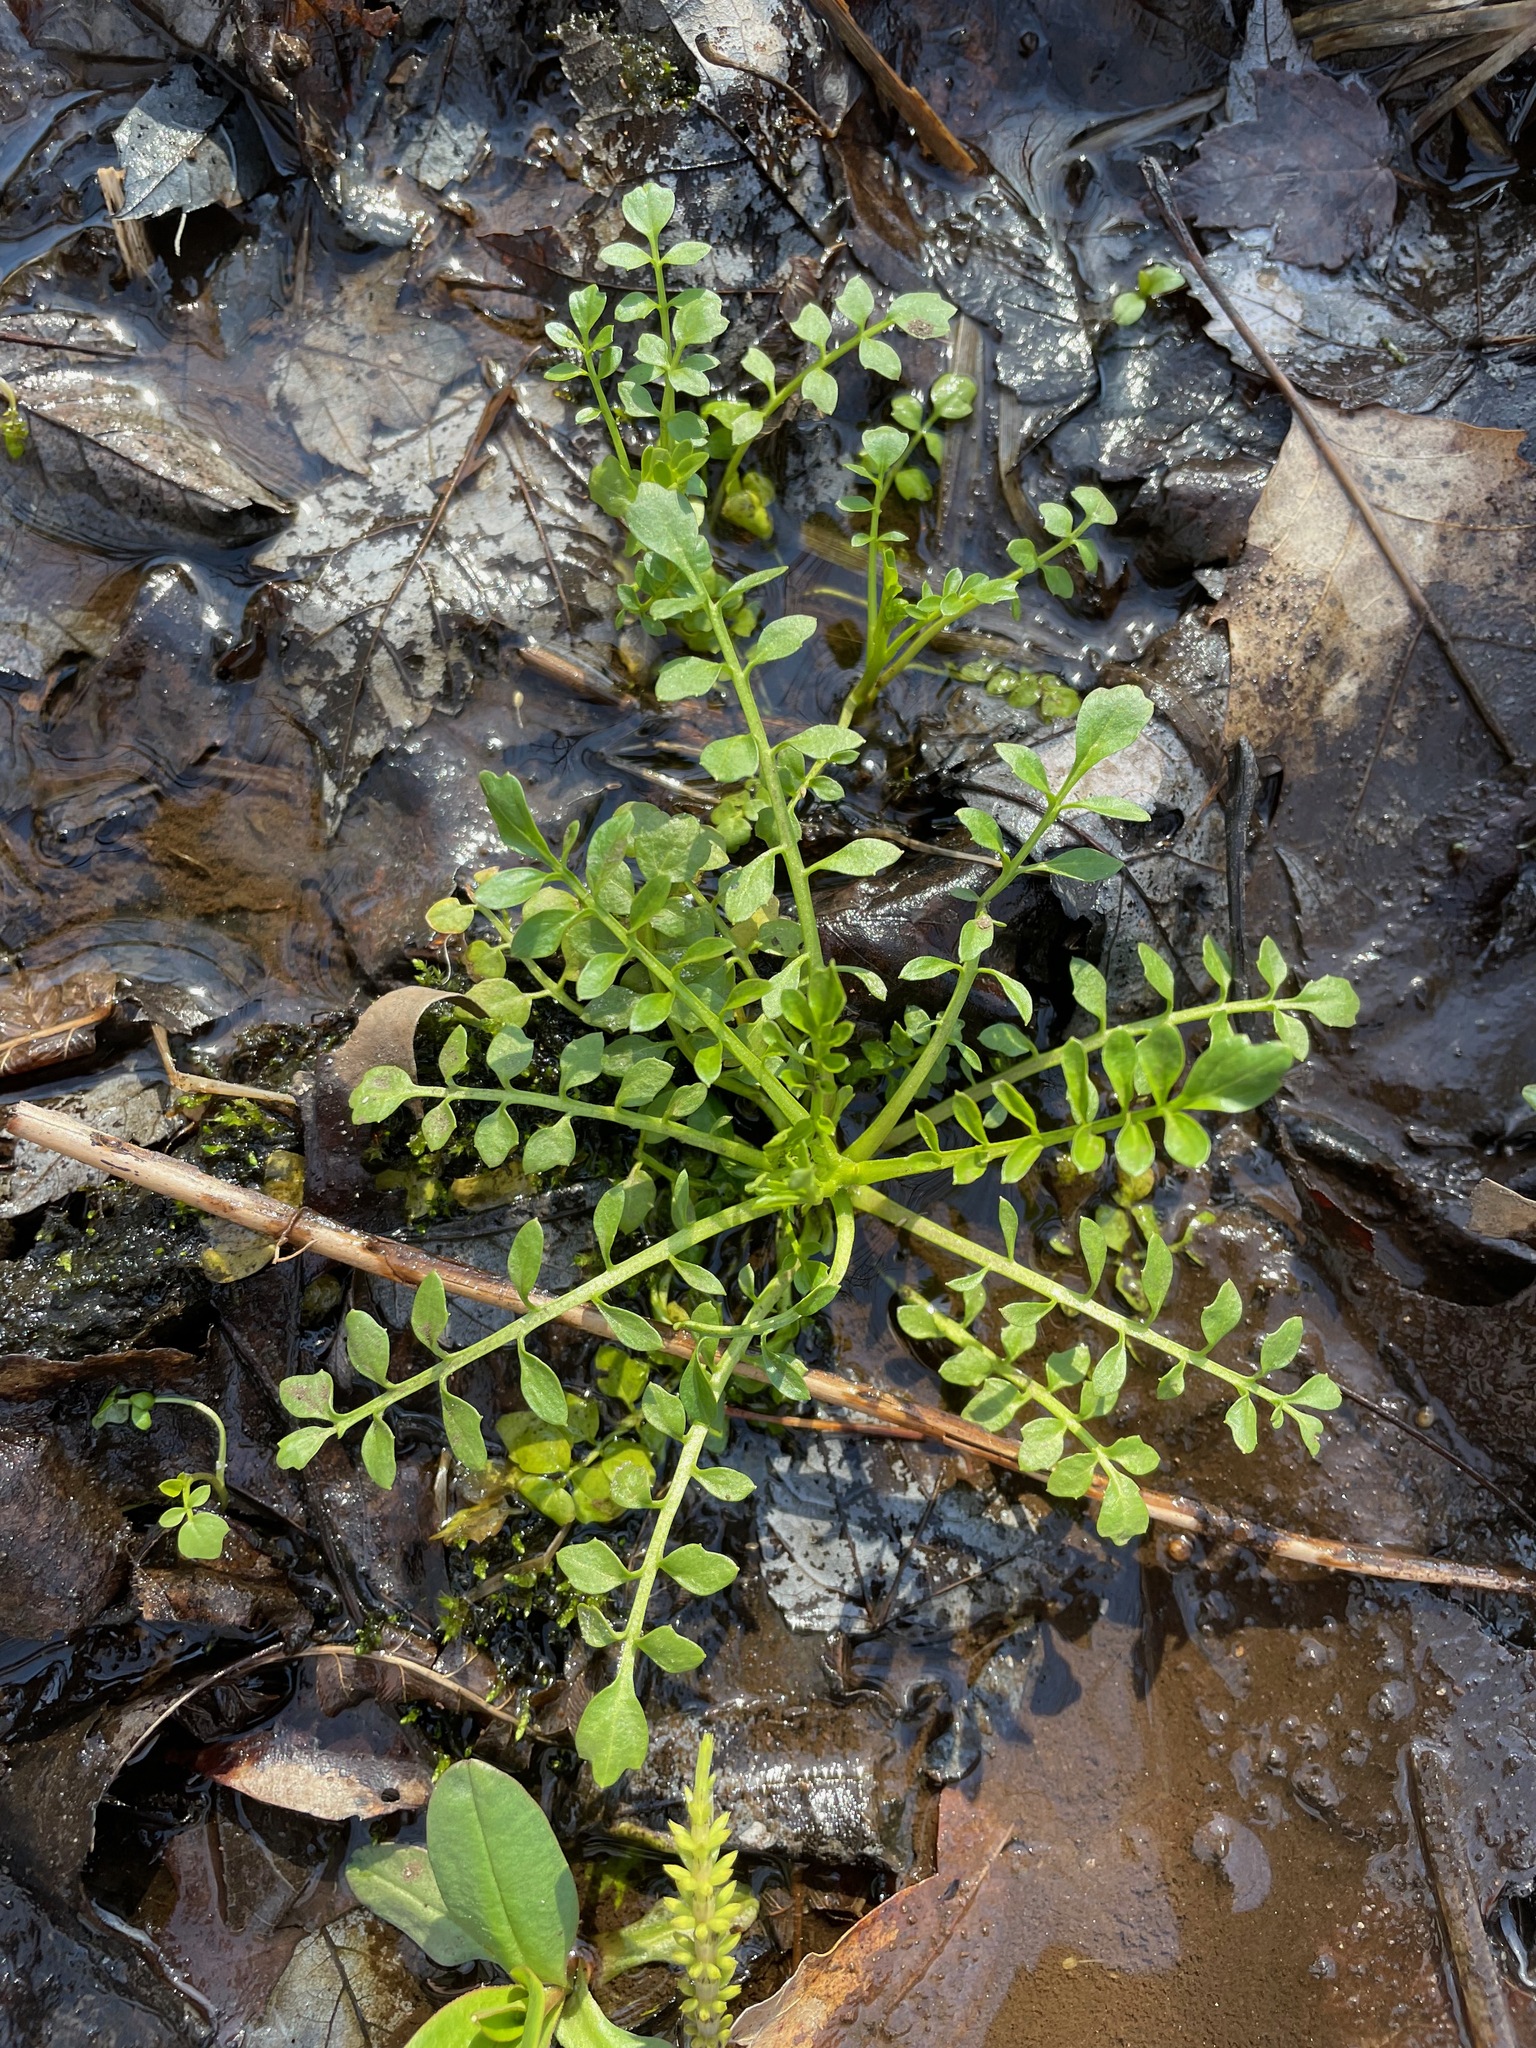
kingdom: Plantae
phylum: Tracheophyta
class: Magnoliopsida
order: Brassicales
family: Brassicaceae
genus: Cardamine
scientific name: Cardamine impatiens
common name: Narrow-leaved bitter-cress
